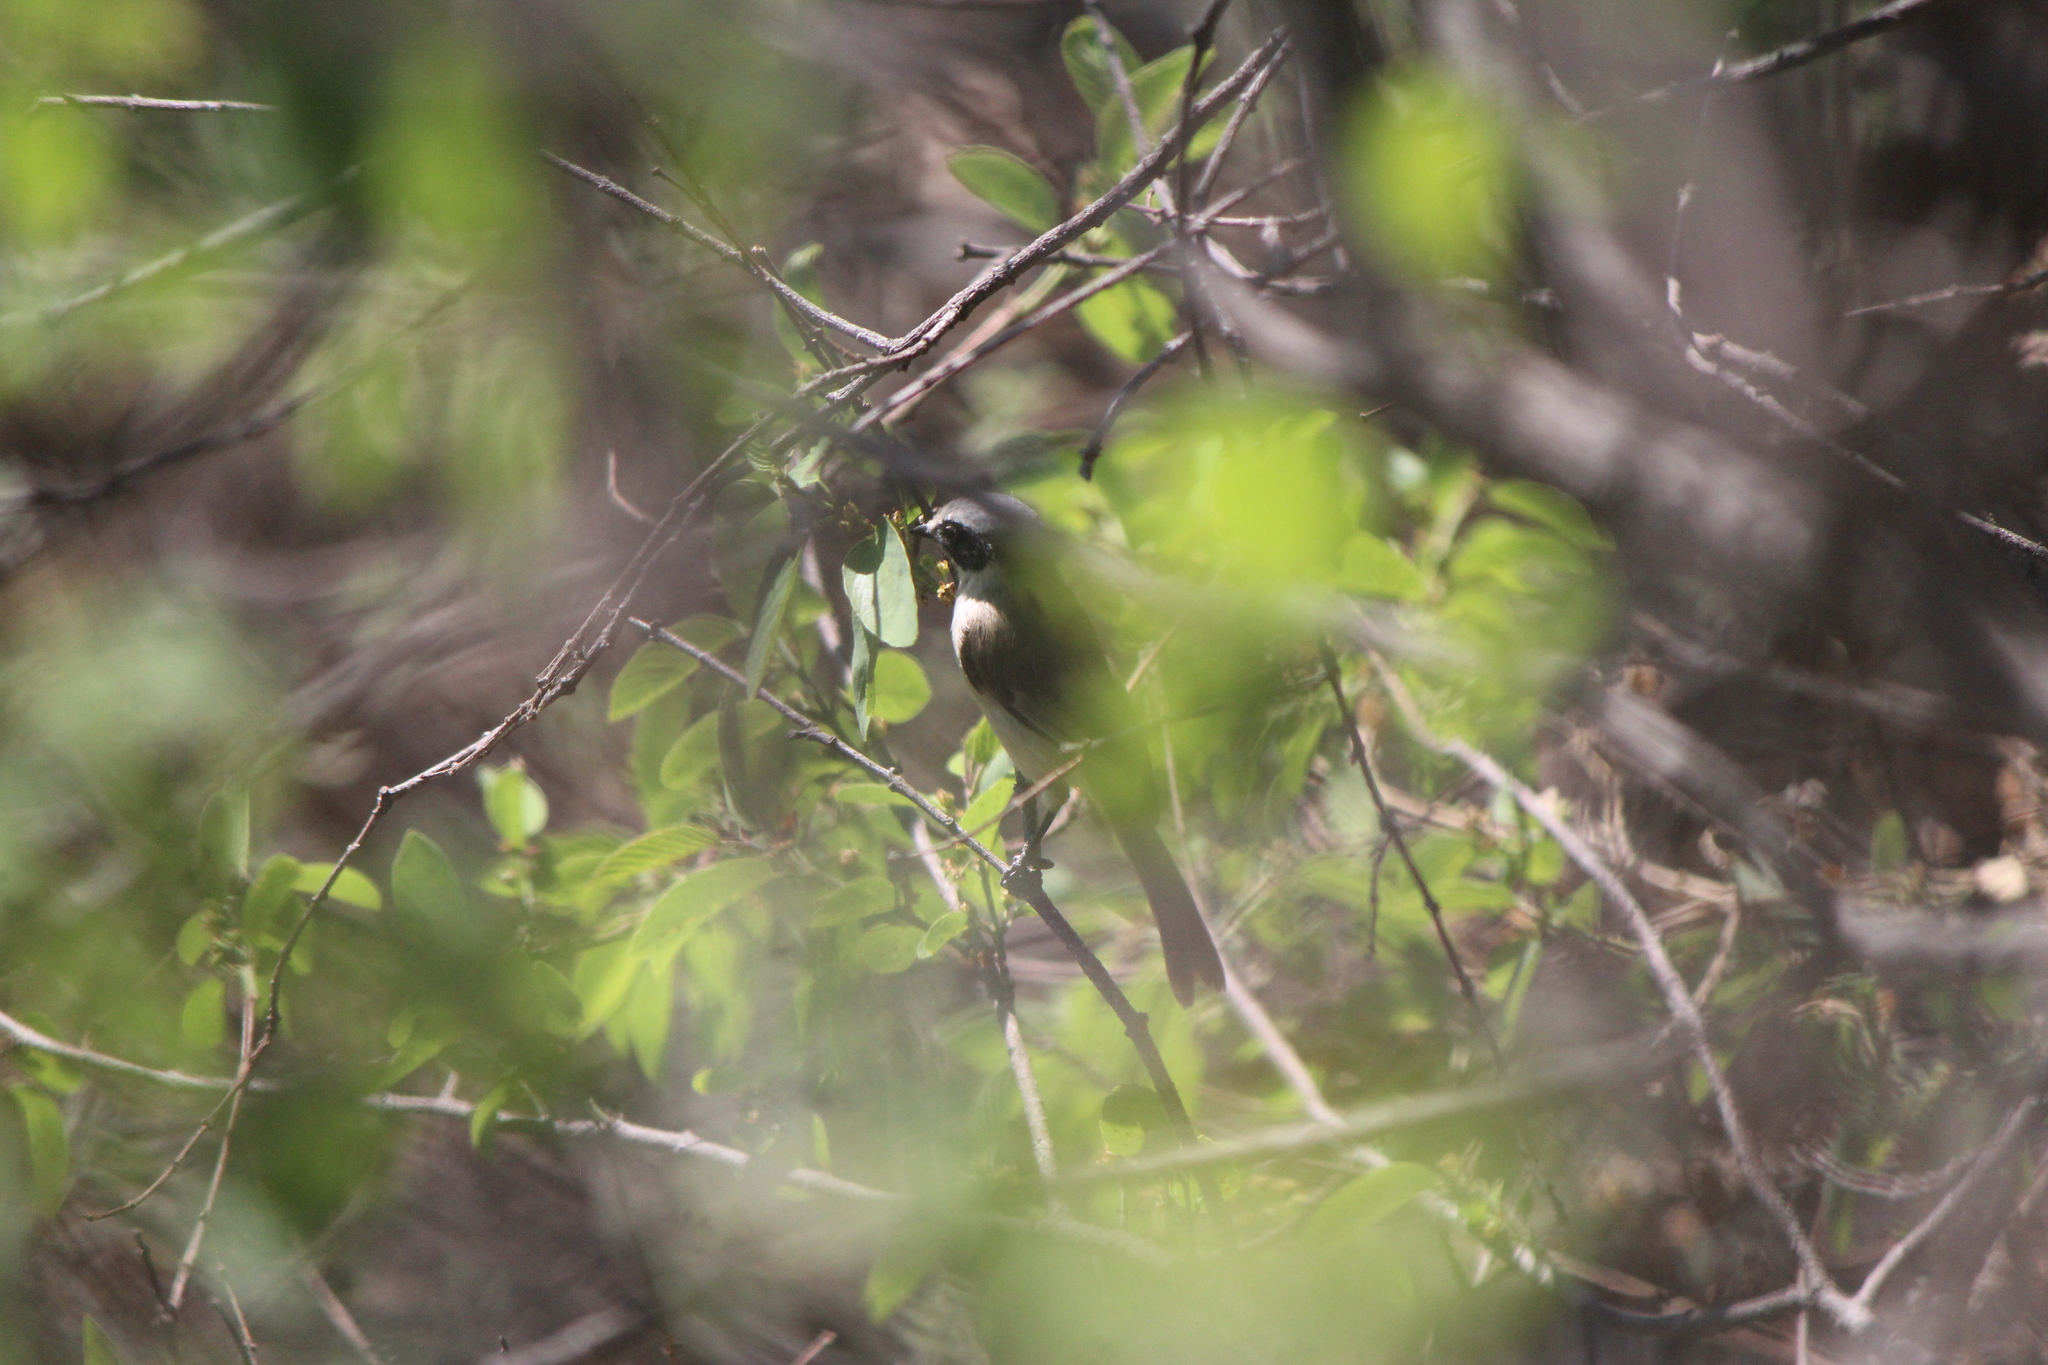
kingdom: Animalia
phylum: Chordata
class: Aves
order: Passeriformes
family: Aegithalidae
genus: Psaltriparus
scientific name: Psaltriparus minimus
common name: American bushtit
